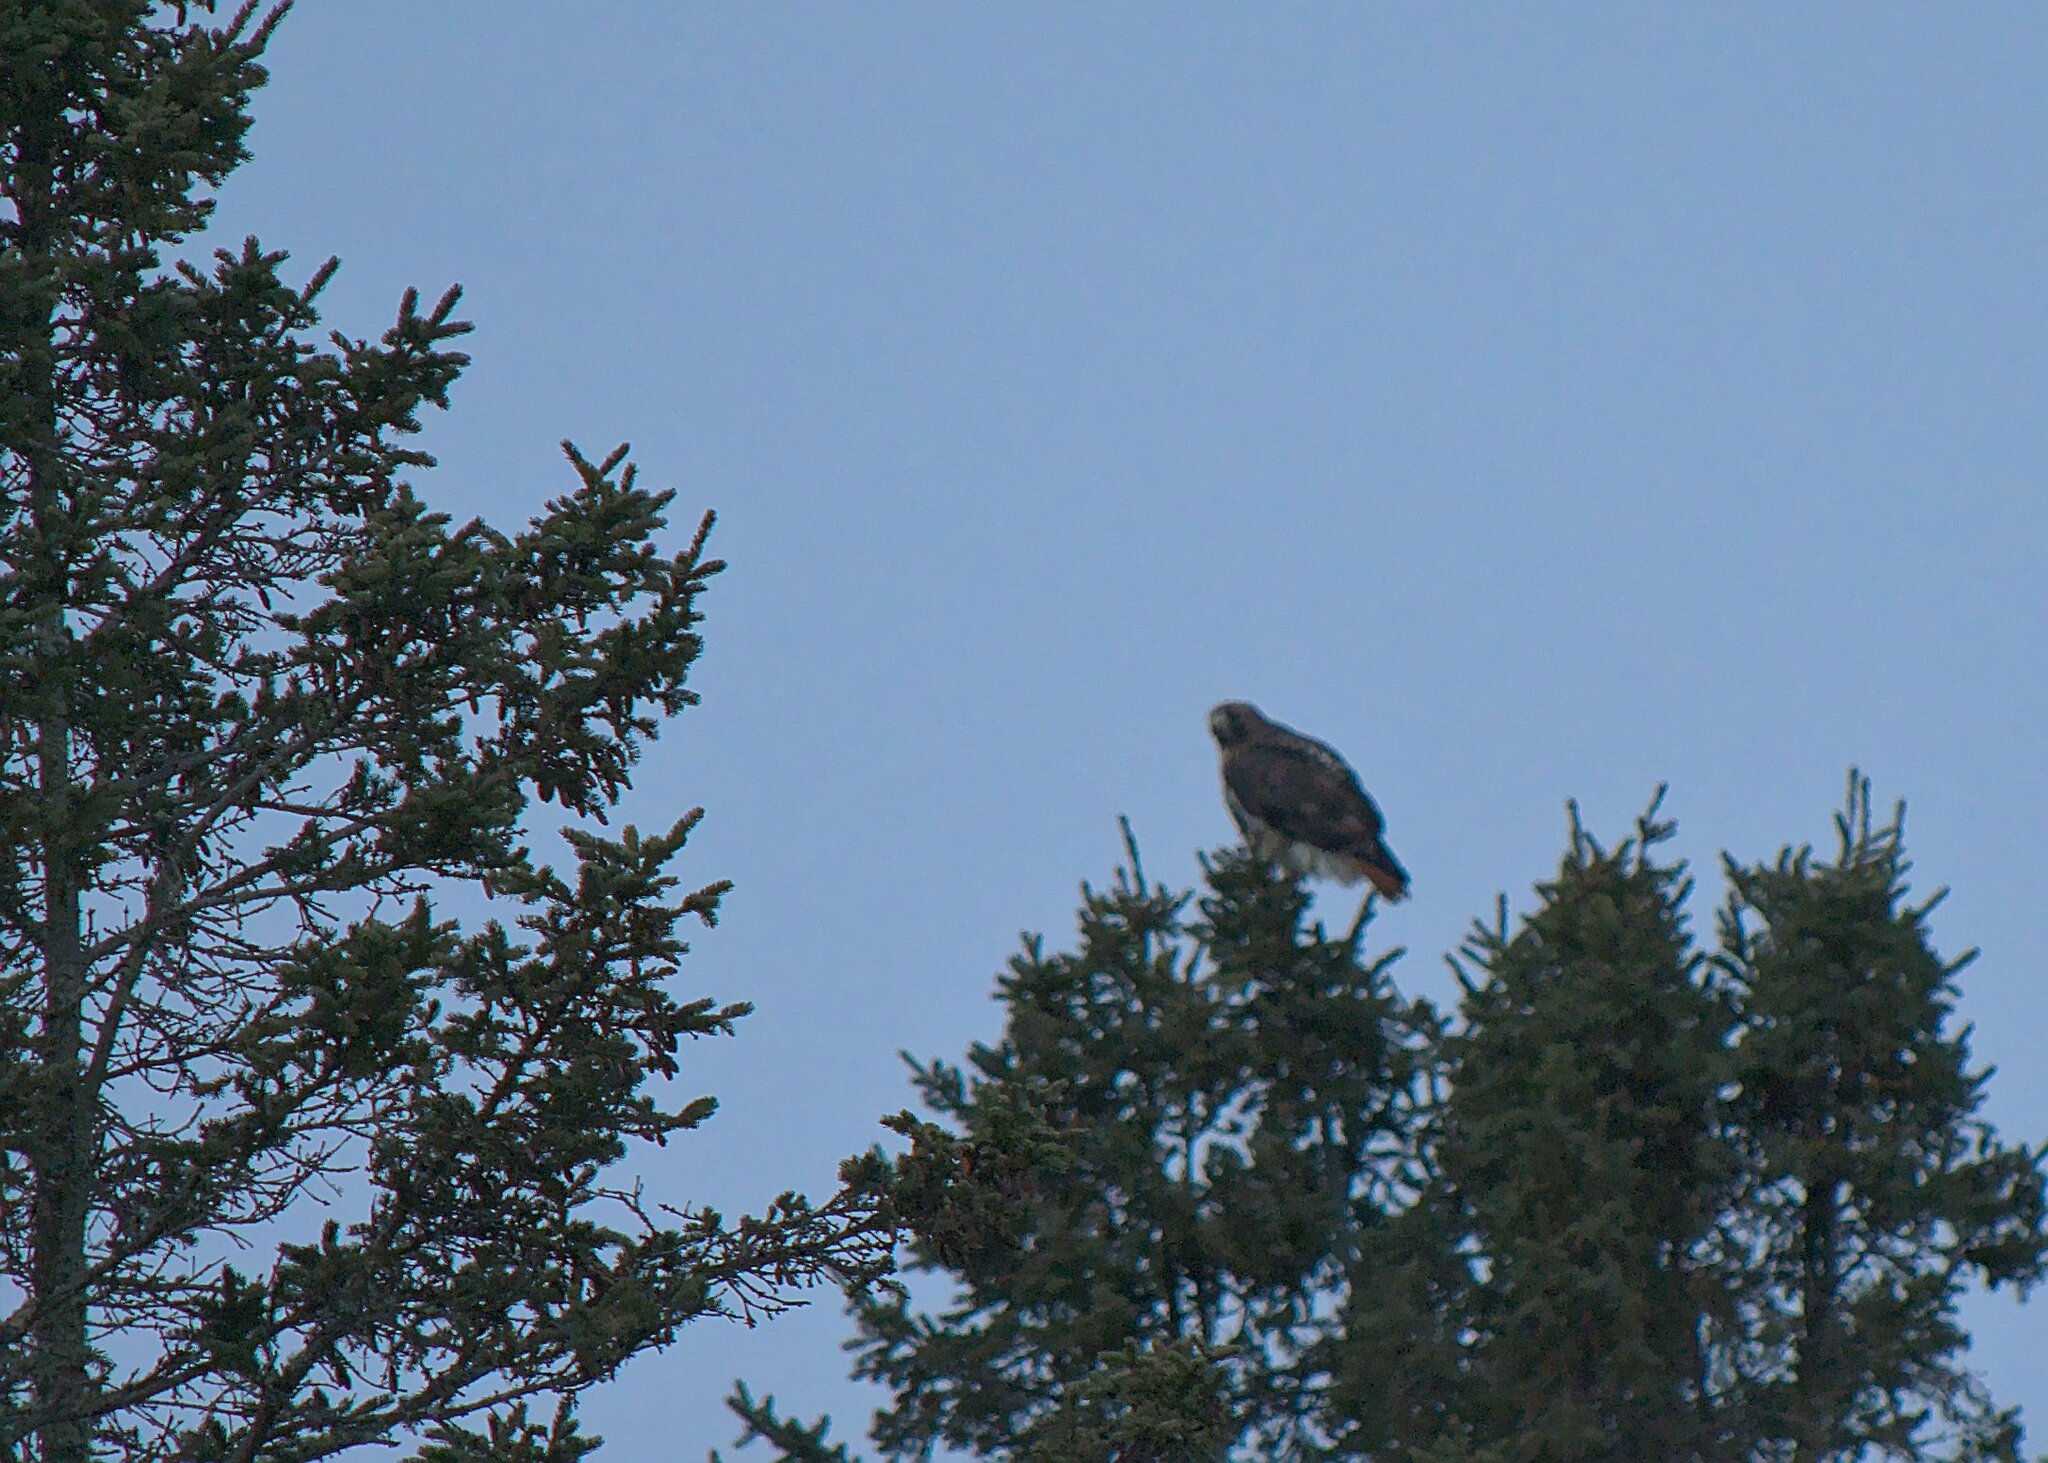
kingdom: Animalia
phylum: Chordata
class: Aves
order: Accipitriformes
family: Accipitridae
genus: Buteo
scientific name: Buteo jamaicensis
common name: Red-tailed hawk
